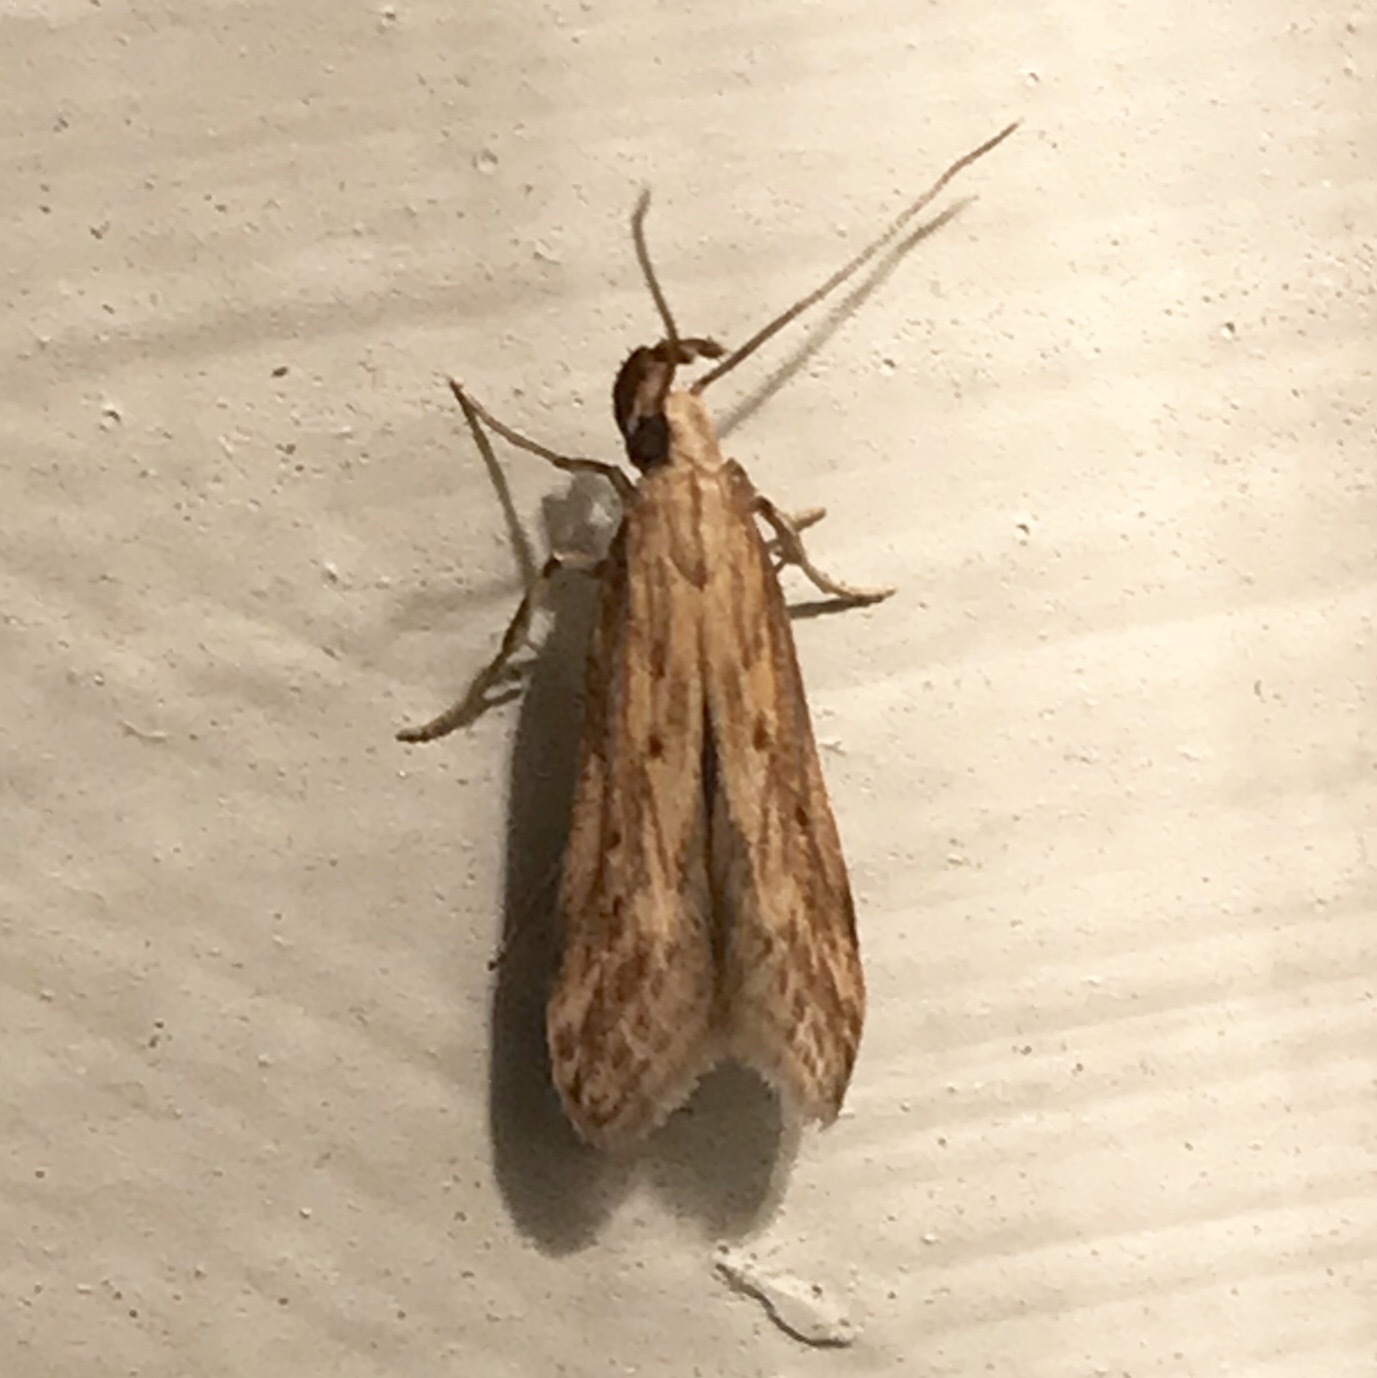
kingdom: Animalia
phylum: Arthropoda
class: Insecta
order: Lepidoptera
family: Gelechiidae
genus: Metzneria
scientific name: Metzneria lappella
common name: Burdock neb
